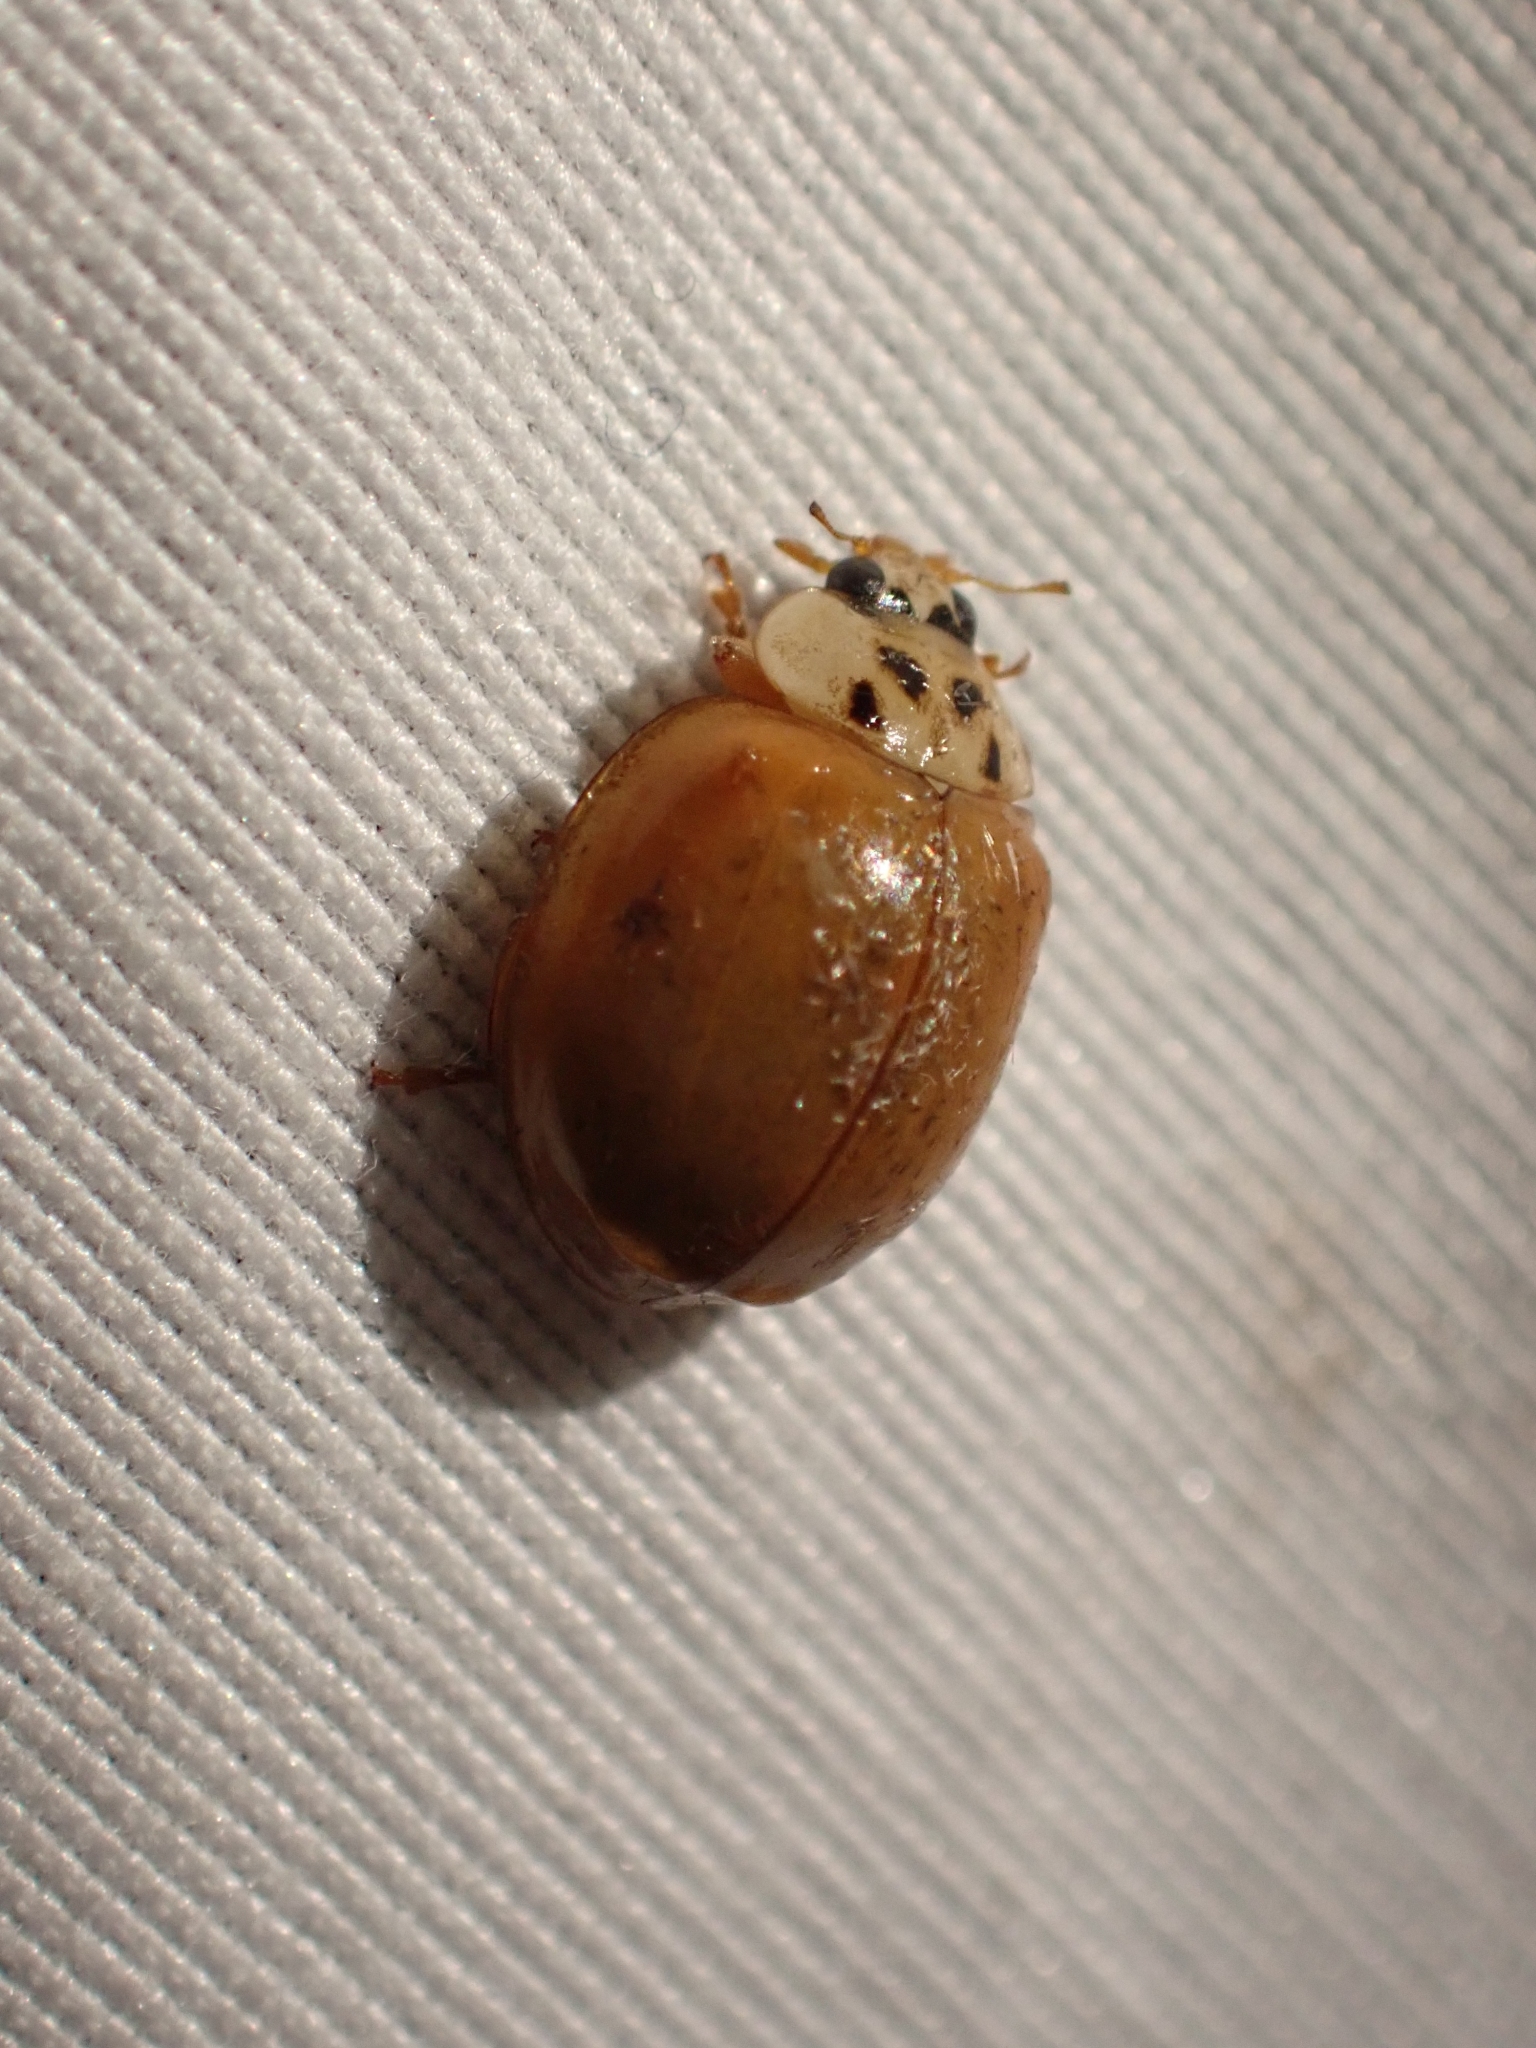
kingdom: Animalia
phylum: Arthropoda
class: Insecta
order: Coleoptera
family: Coccinellidae
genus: Harmonia
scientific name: Harmonia axyridis
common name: Harlequin ladybird
